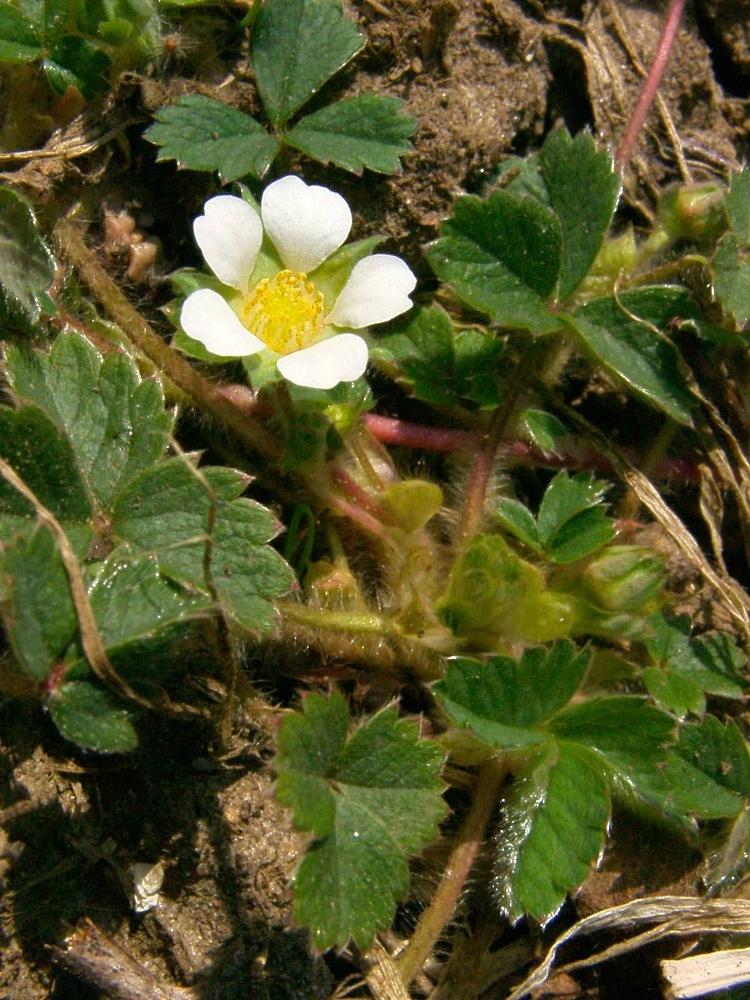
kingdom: Plantae
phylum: Tracheophyta
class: Magnoliopsida
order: Rosales
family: Rosaceae
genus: Potentilla
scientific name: Potentilla sterilis
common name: Barren strawberry
